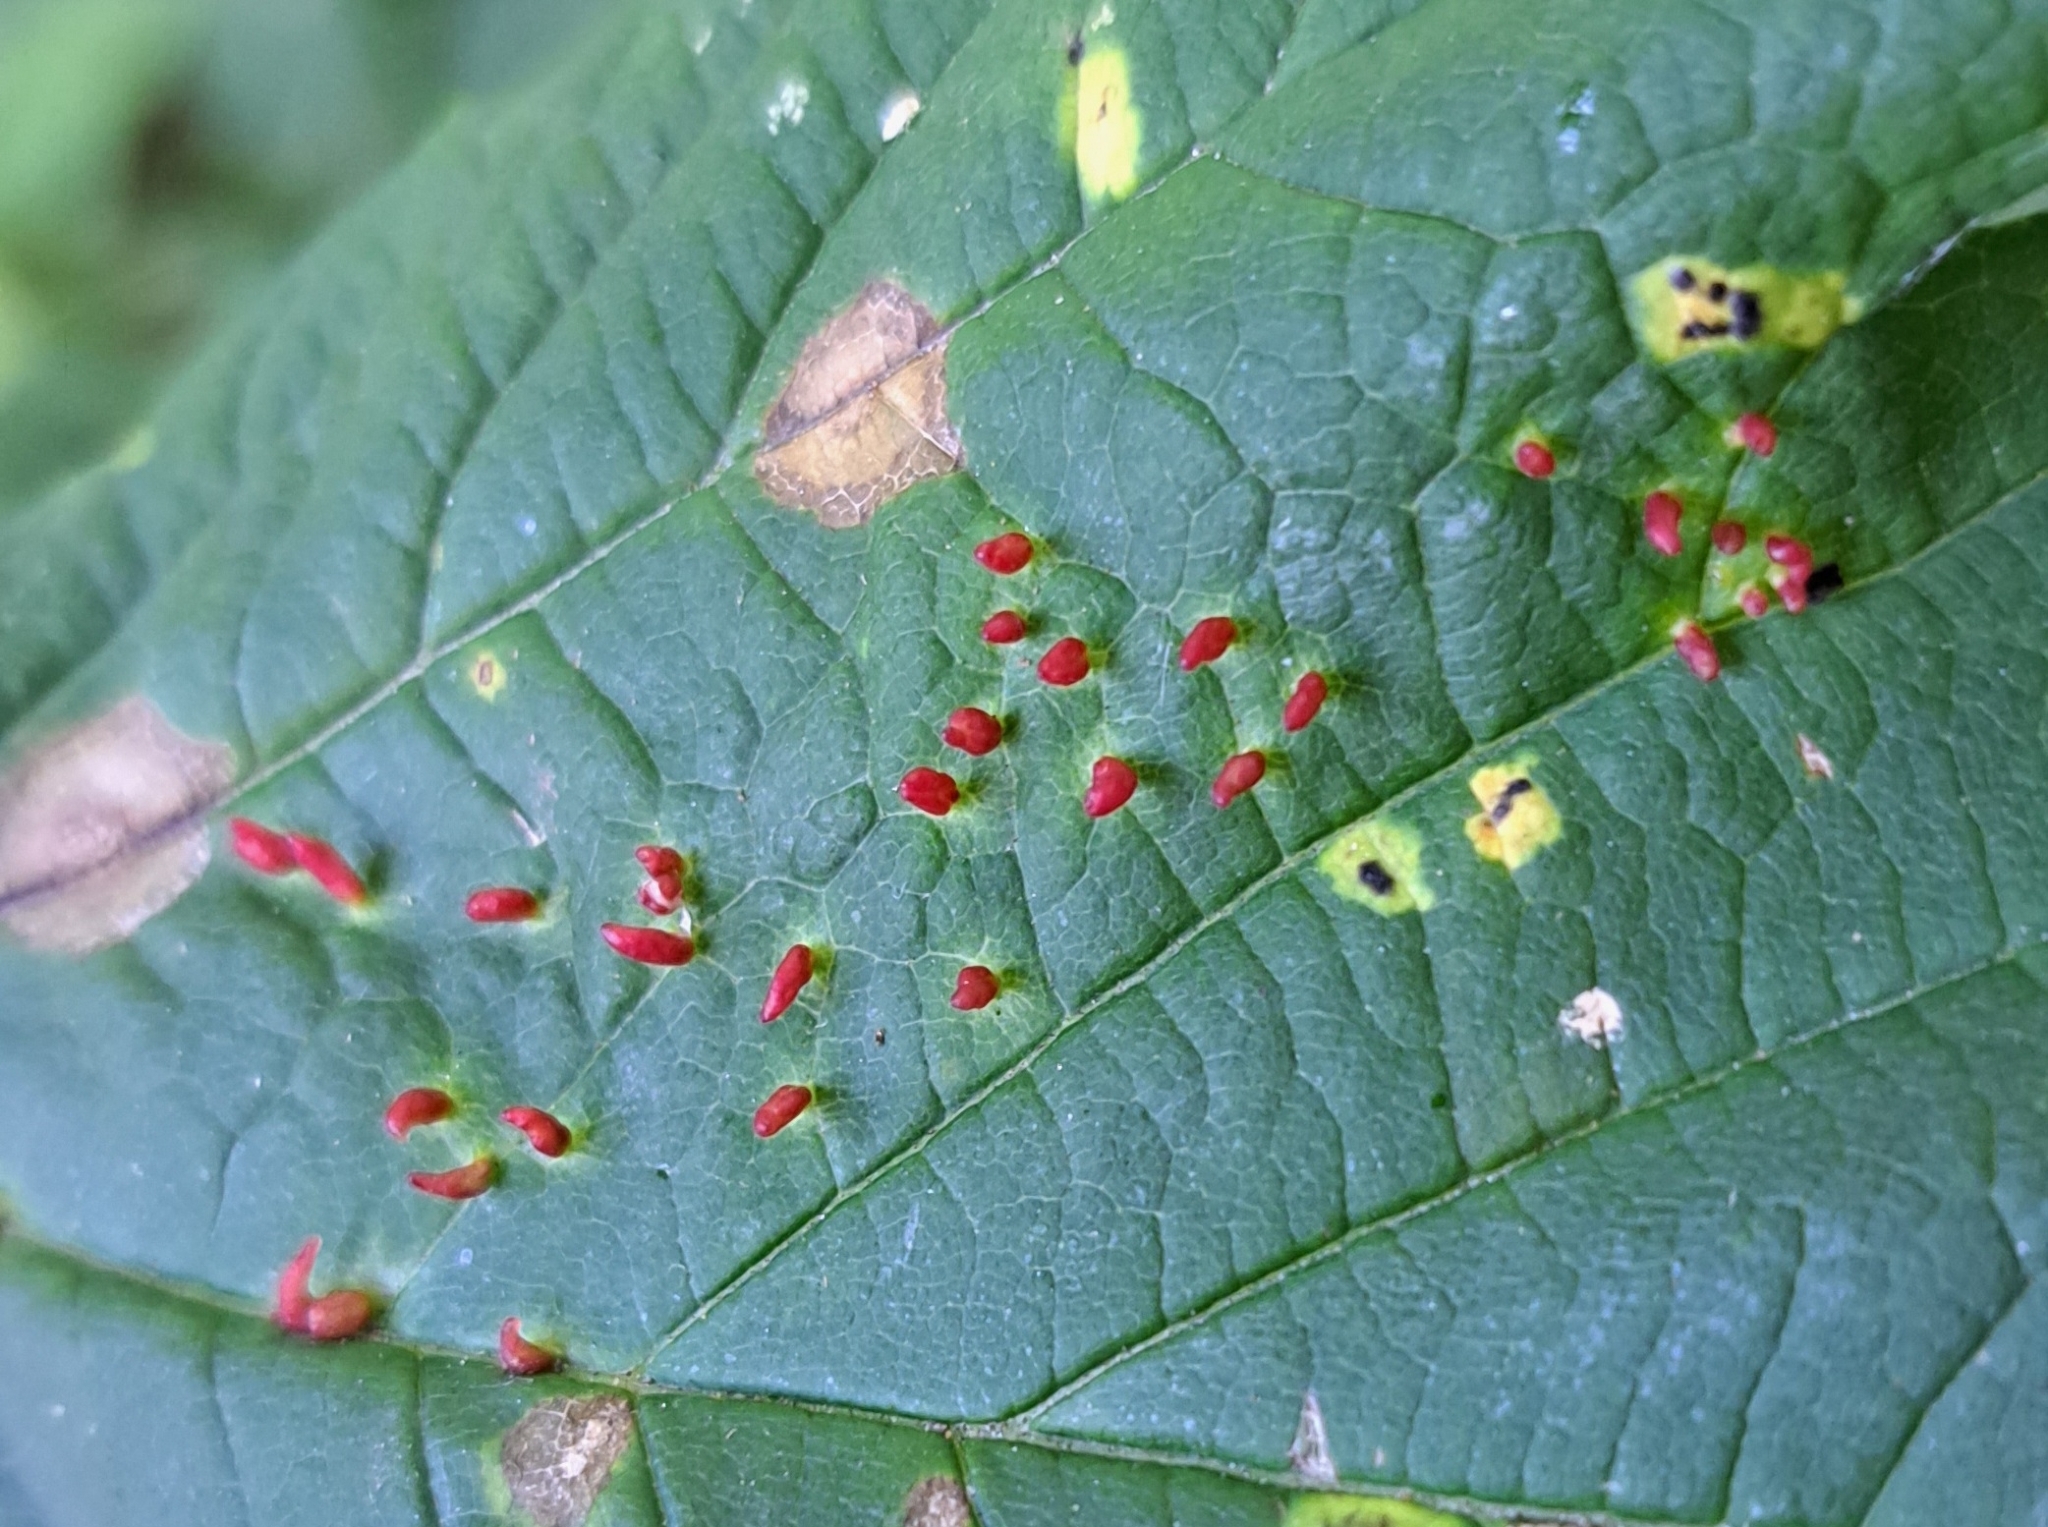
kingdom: Animalia
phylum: Arthropoda
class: Arachnida
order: Trombidiformes
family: Eriophyidae
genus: Aceria
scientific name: Aceria macrorhynchus
